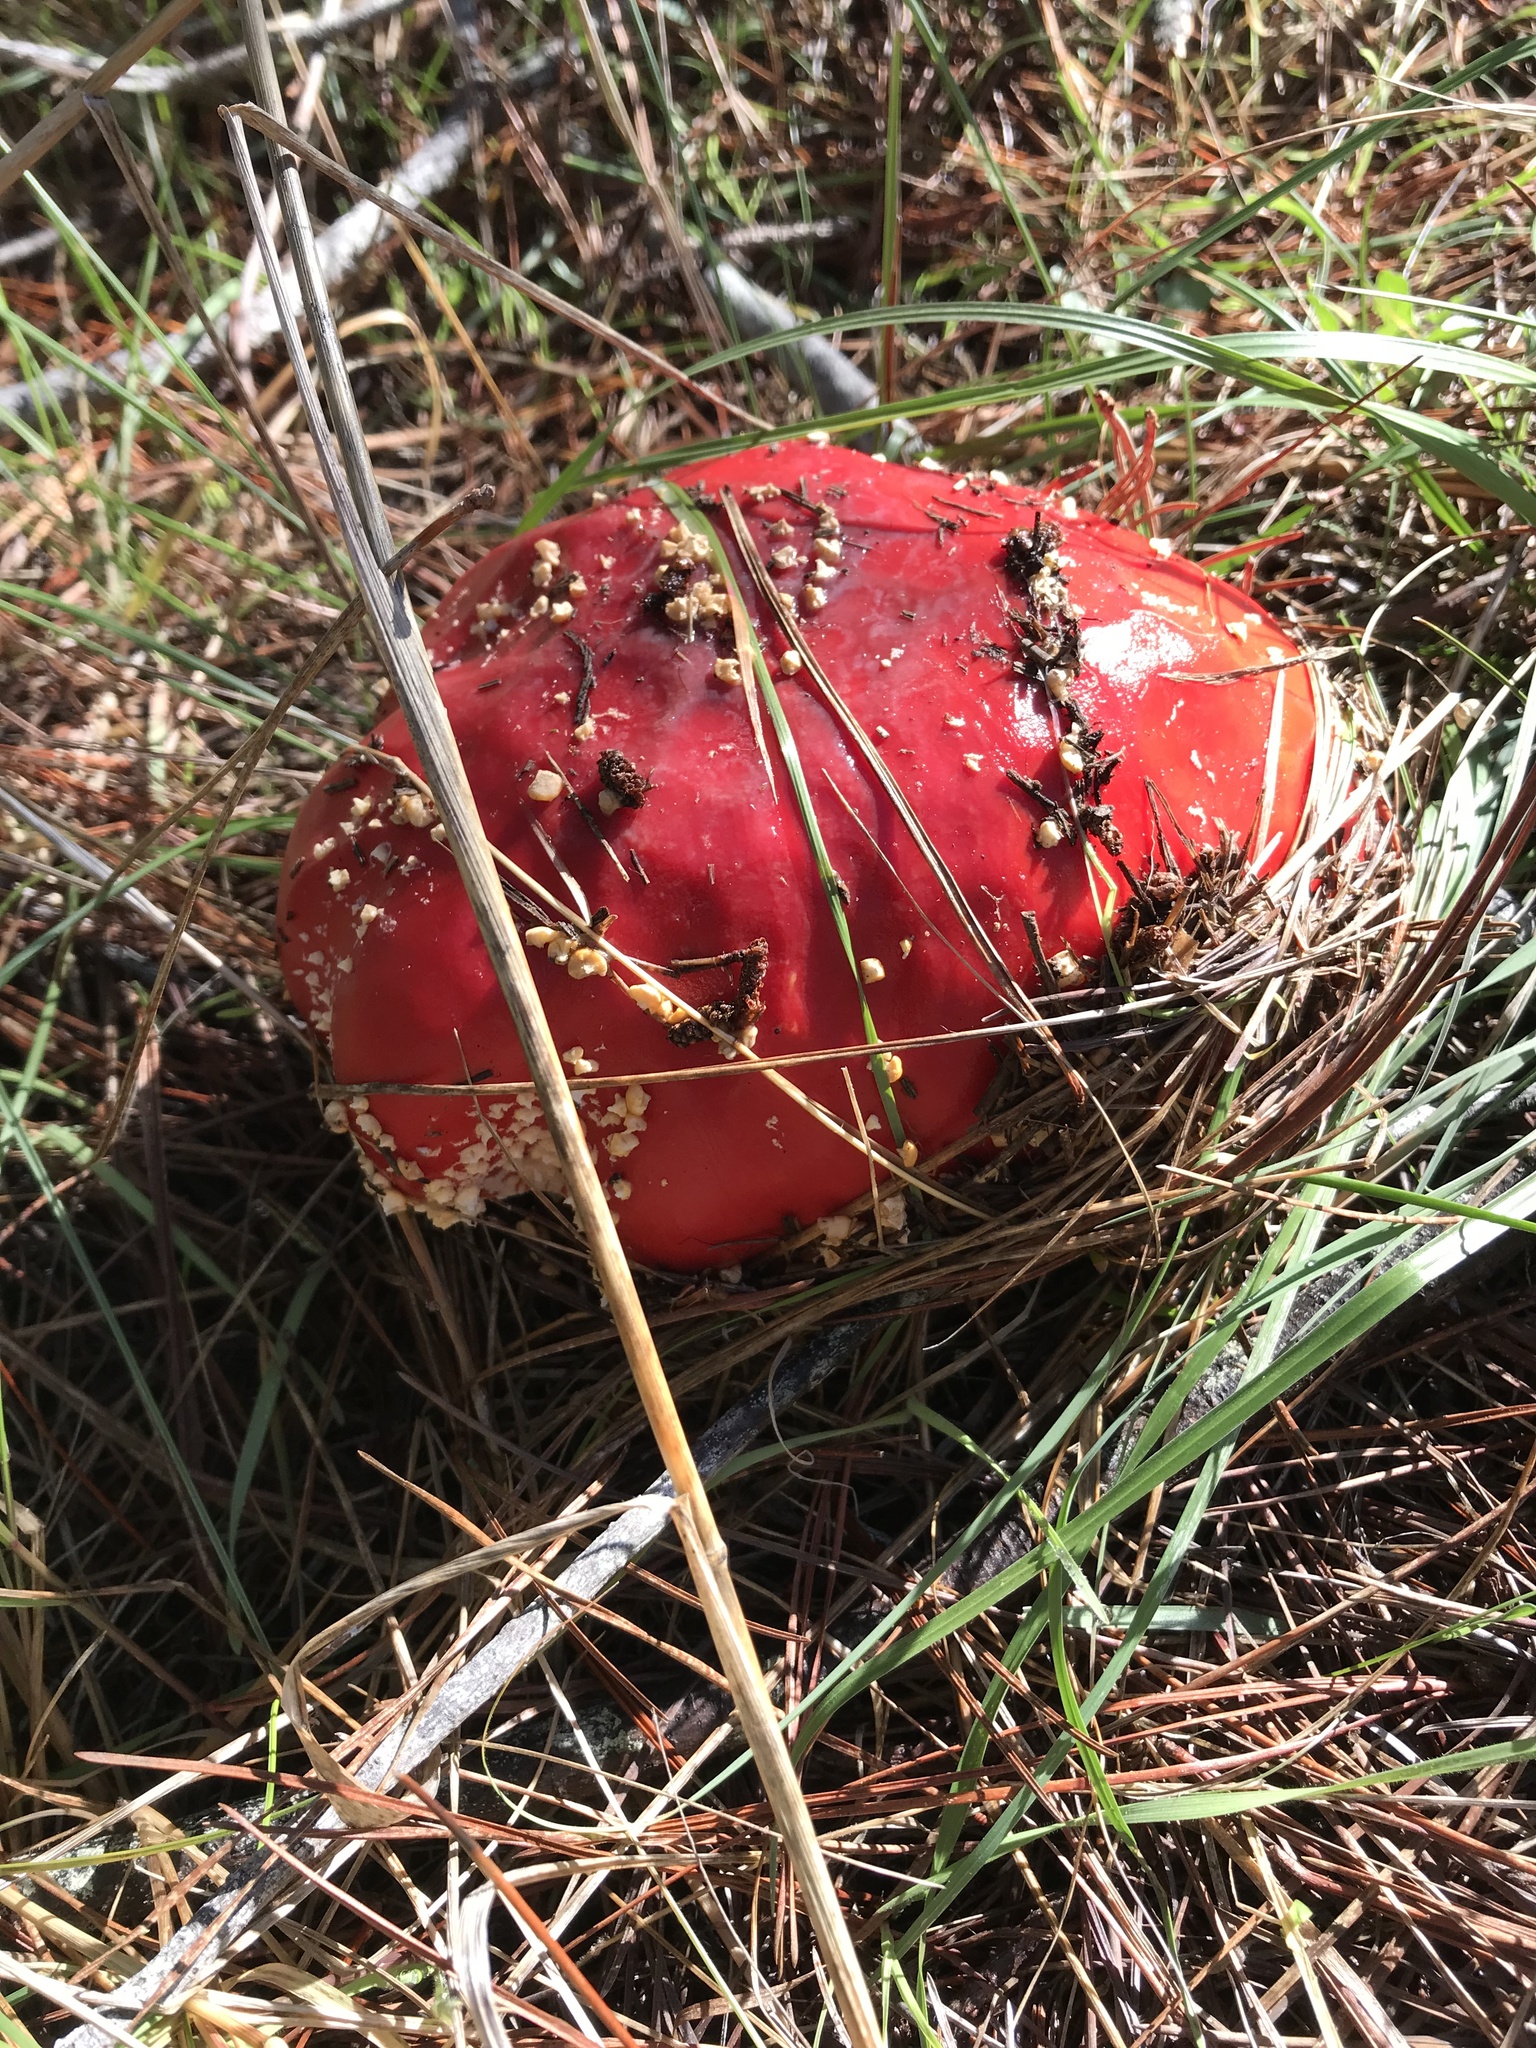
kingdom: Fungi
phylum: Basidiomycota
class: Agaricomycetes
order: Agaricales
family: Amanitaceae
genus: Amanita
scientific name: Amanita muscaria
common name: Fly agaric
